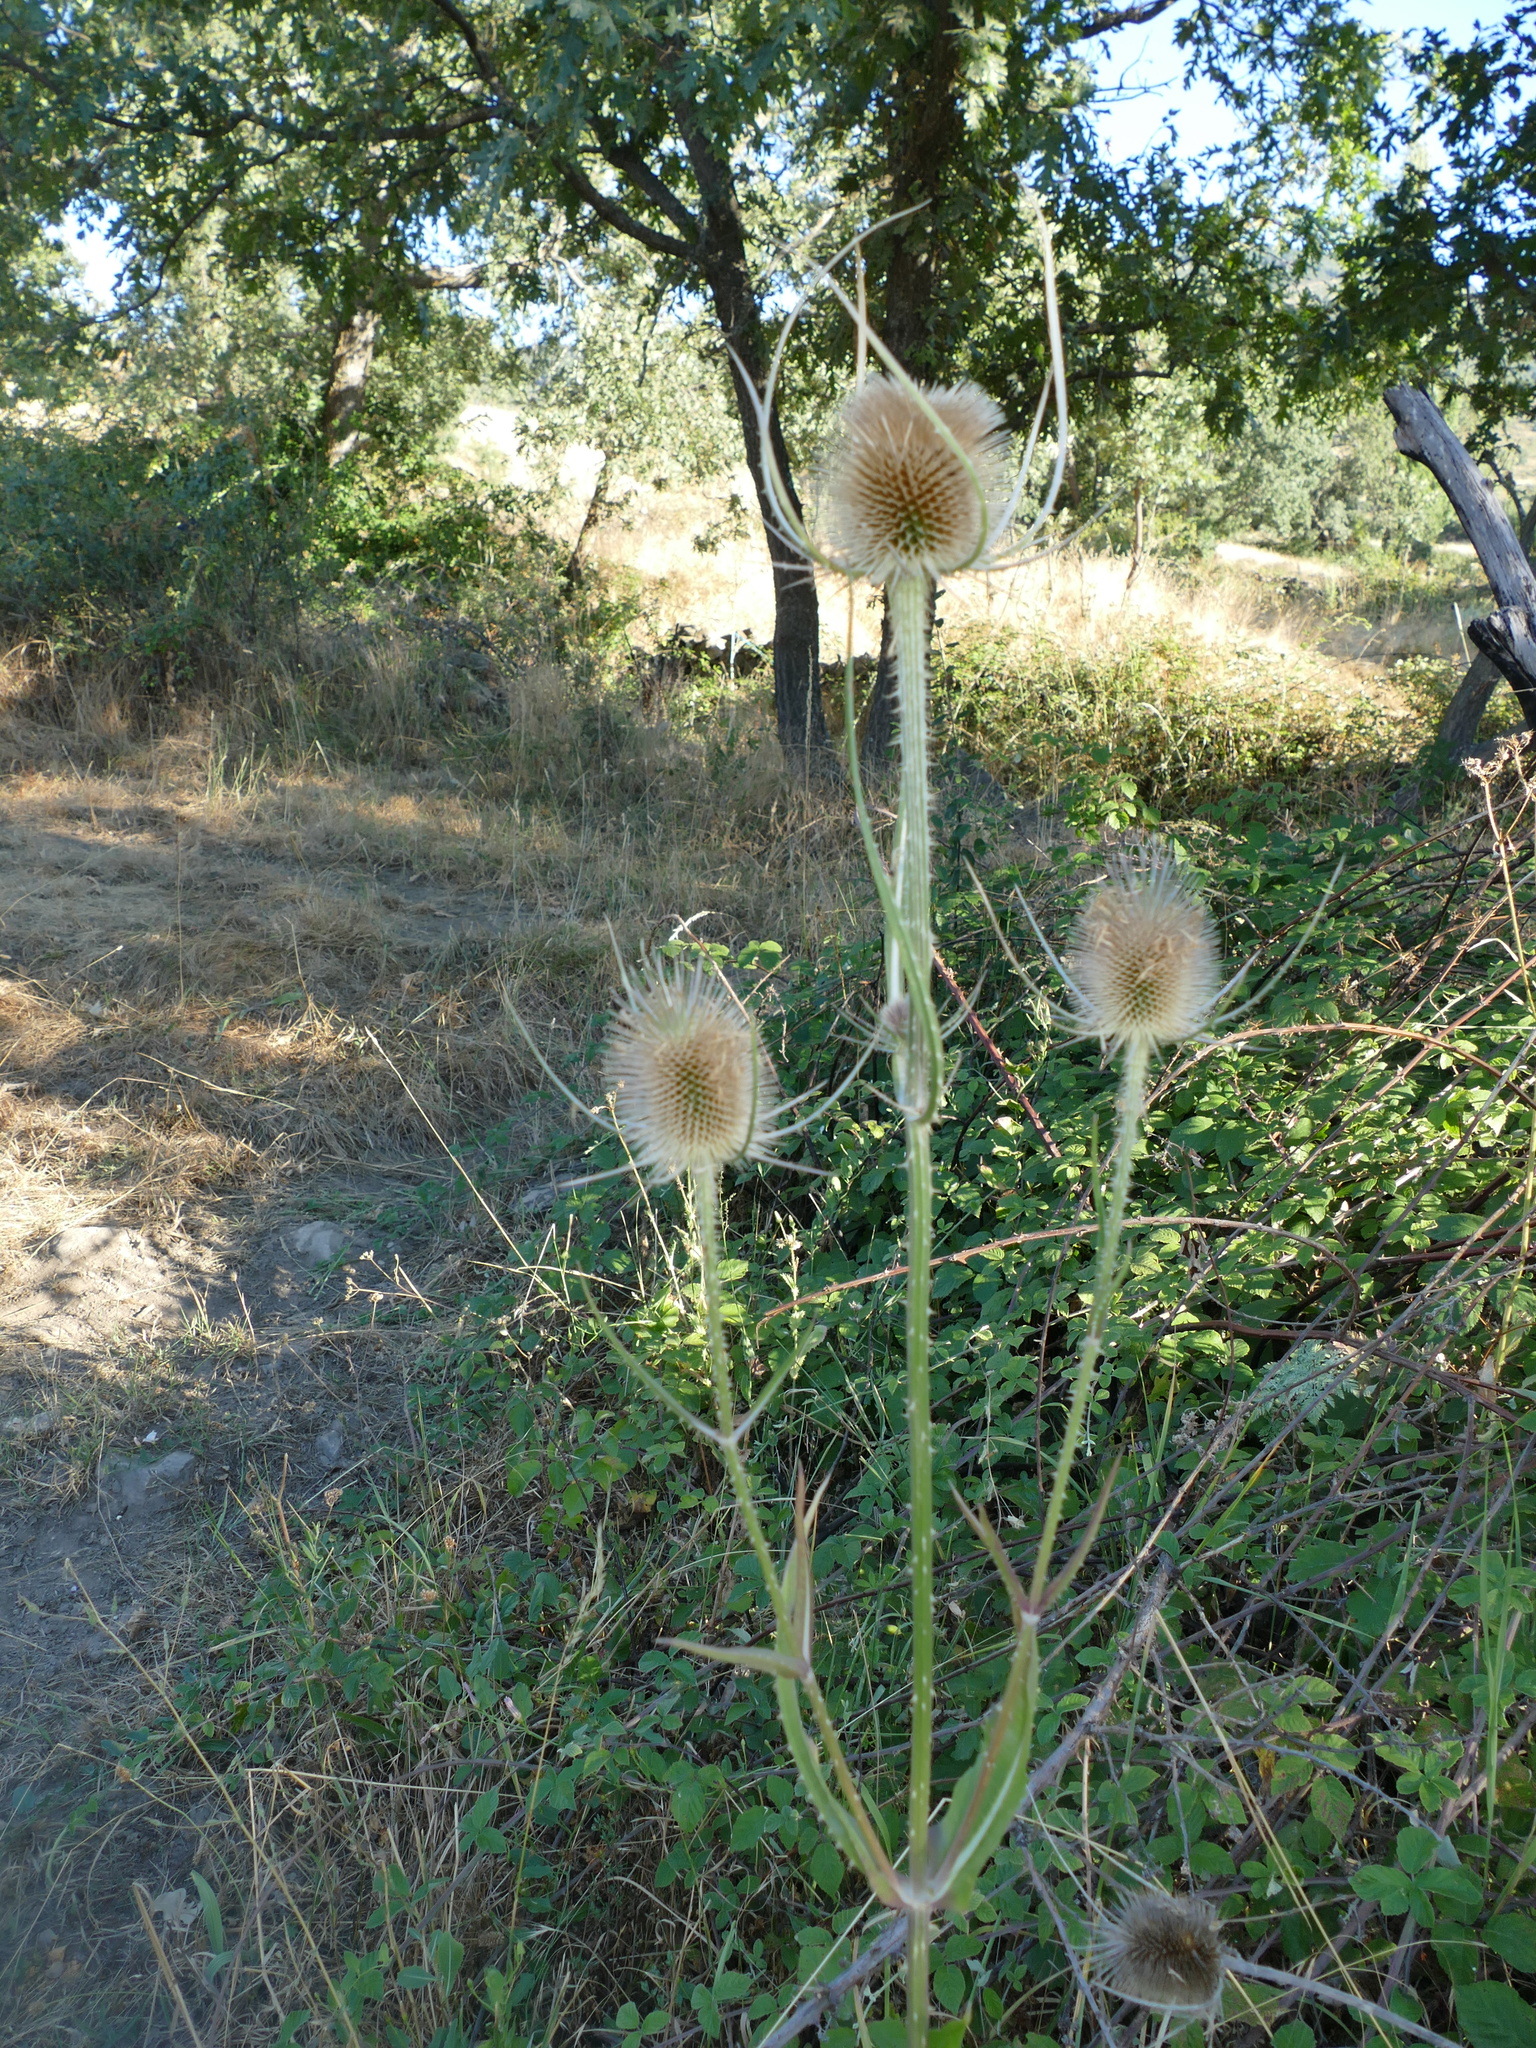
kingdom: Plantae
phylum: Tracheophyta
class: Magnoliopsida
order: Dipsacales
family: Caprifoliaceae
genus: Dipsacus
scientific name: Dipsacus fullonum
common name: Teasel
